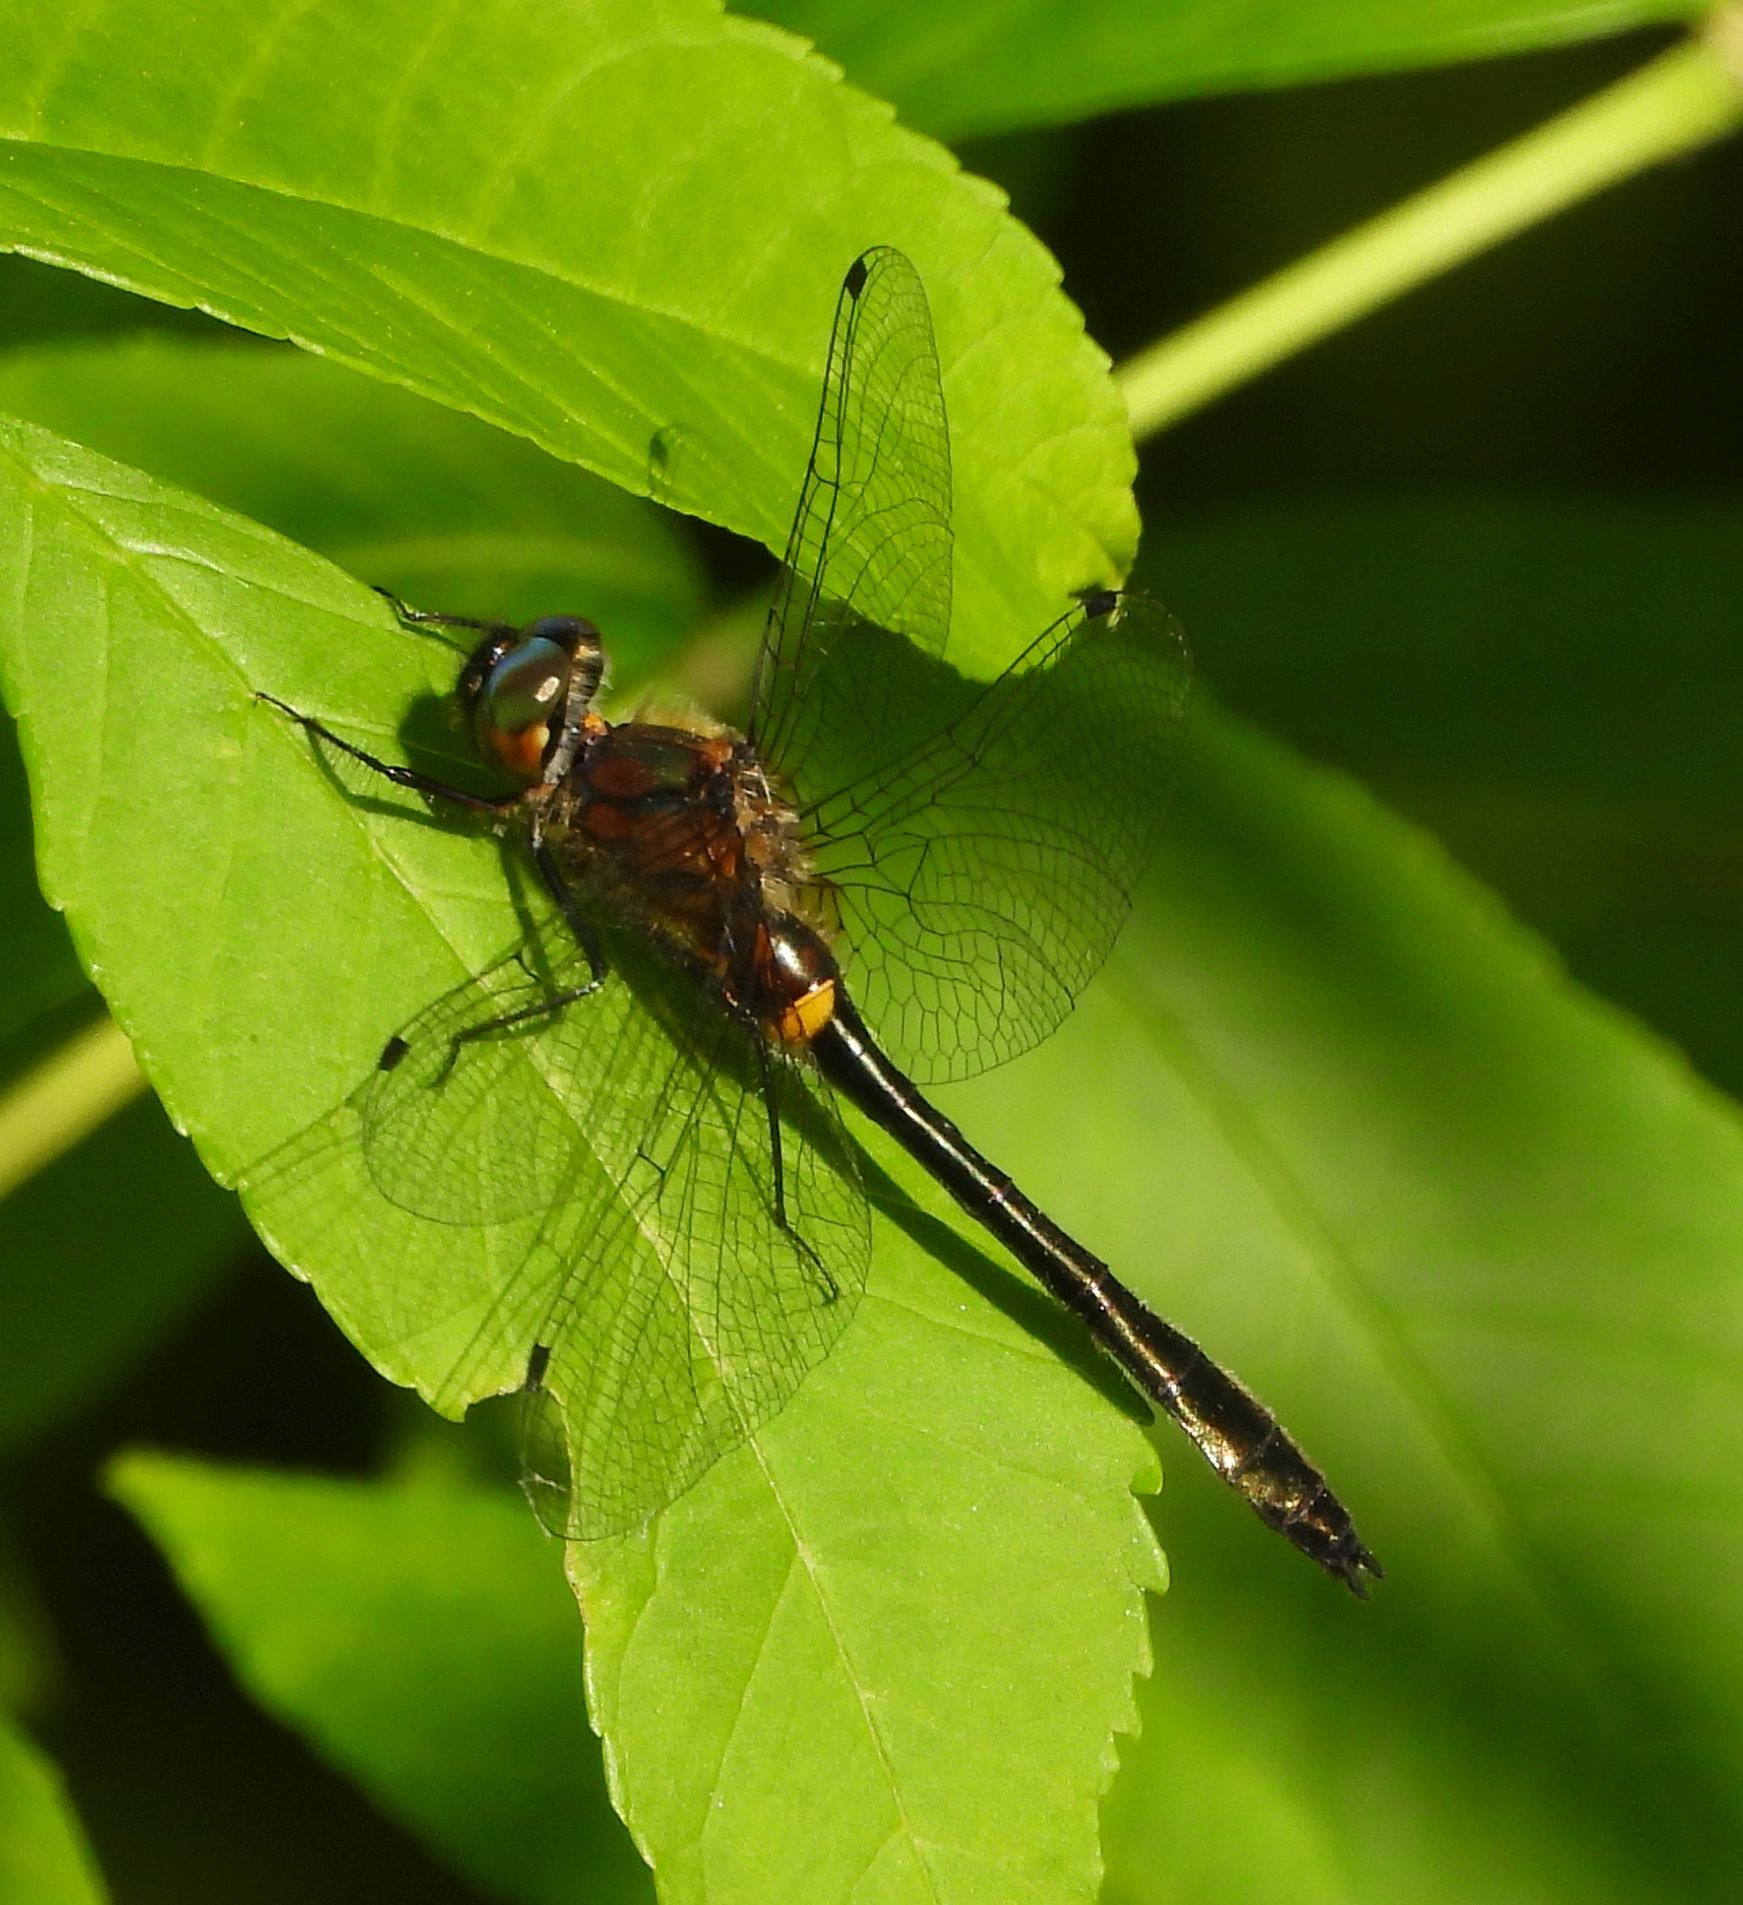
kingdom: Animalia
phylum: Arthropoda
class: Insecta
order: Odonata
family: Corduliidae
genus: Dorocordulia
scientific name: Dorocordulia libera
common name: Racket-tailed emerald
